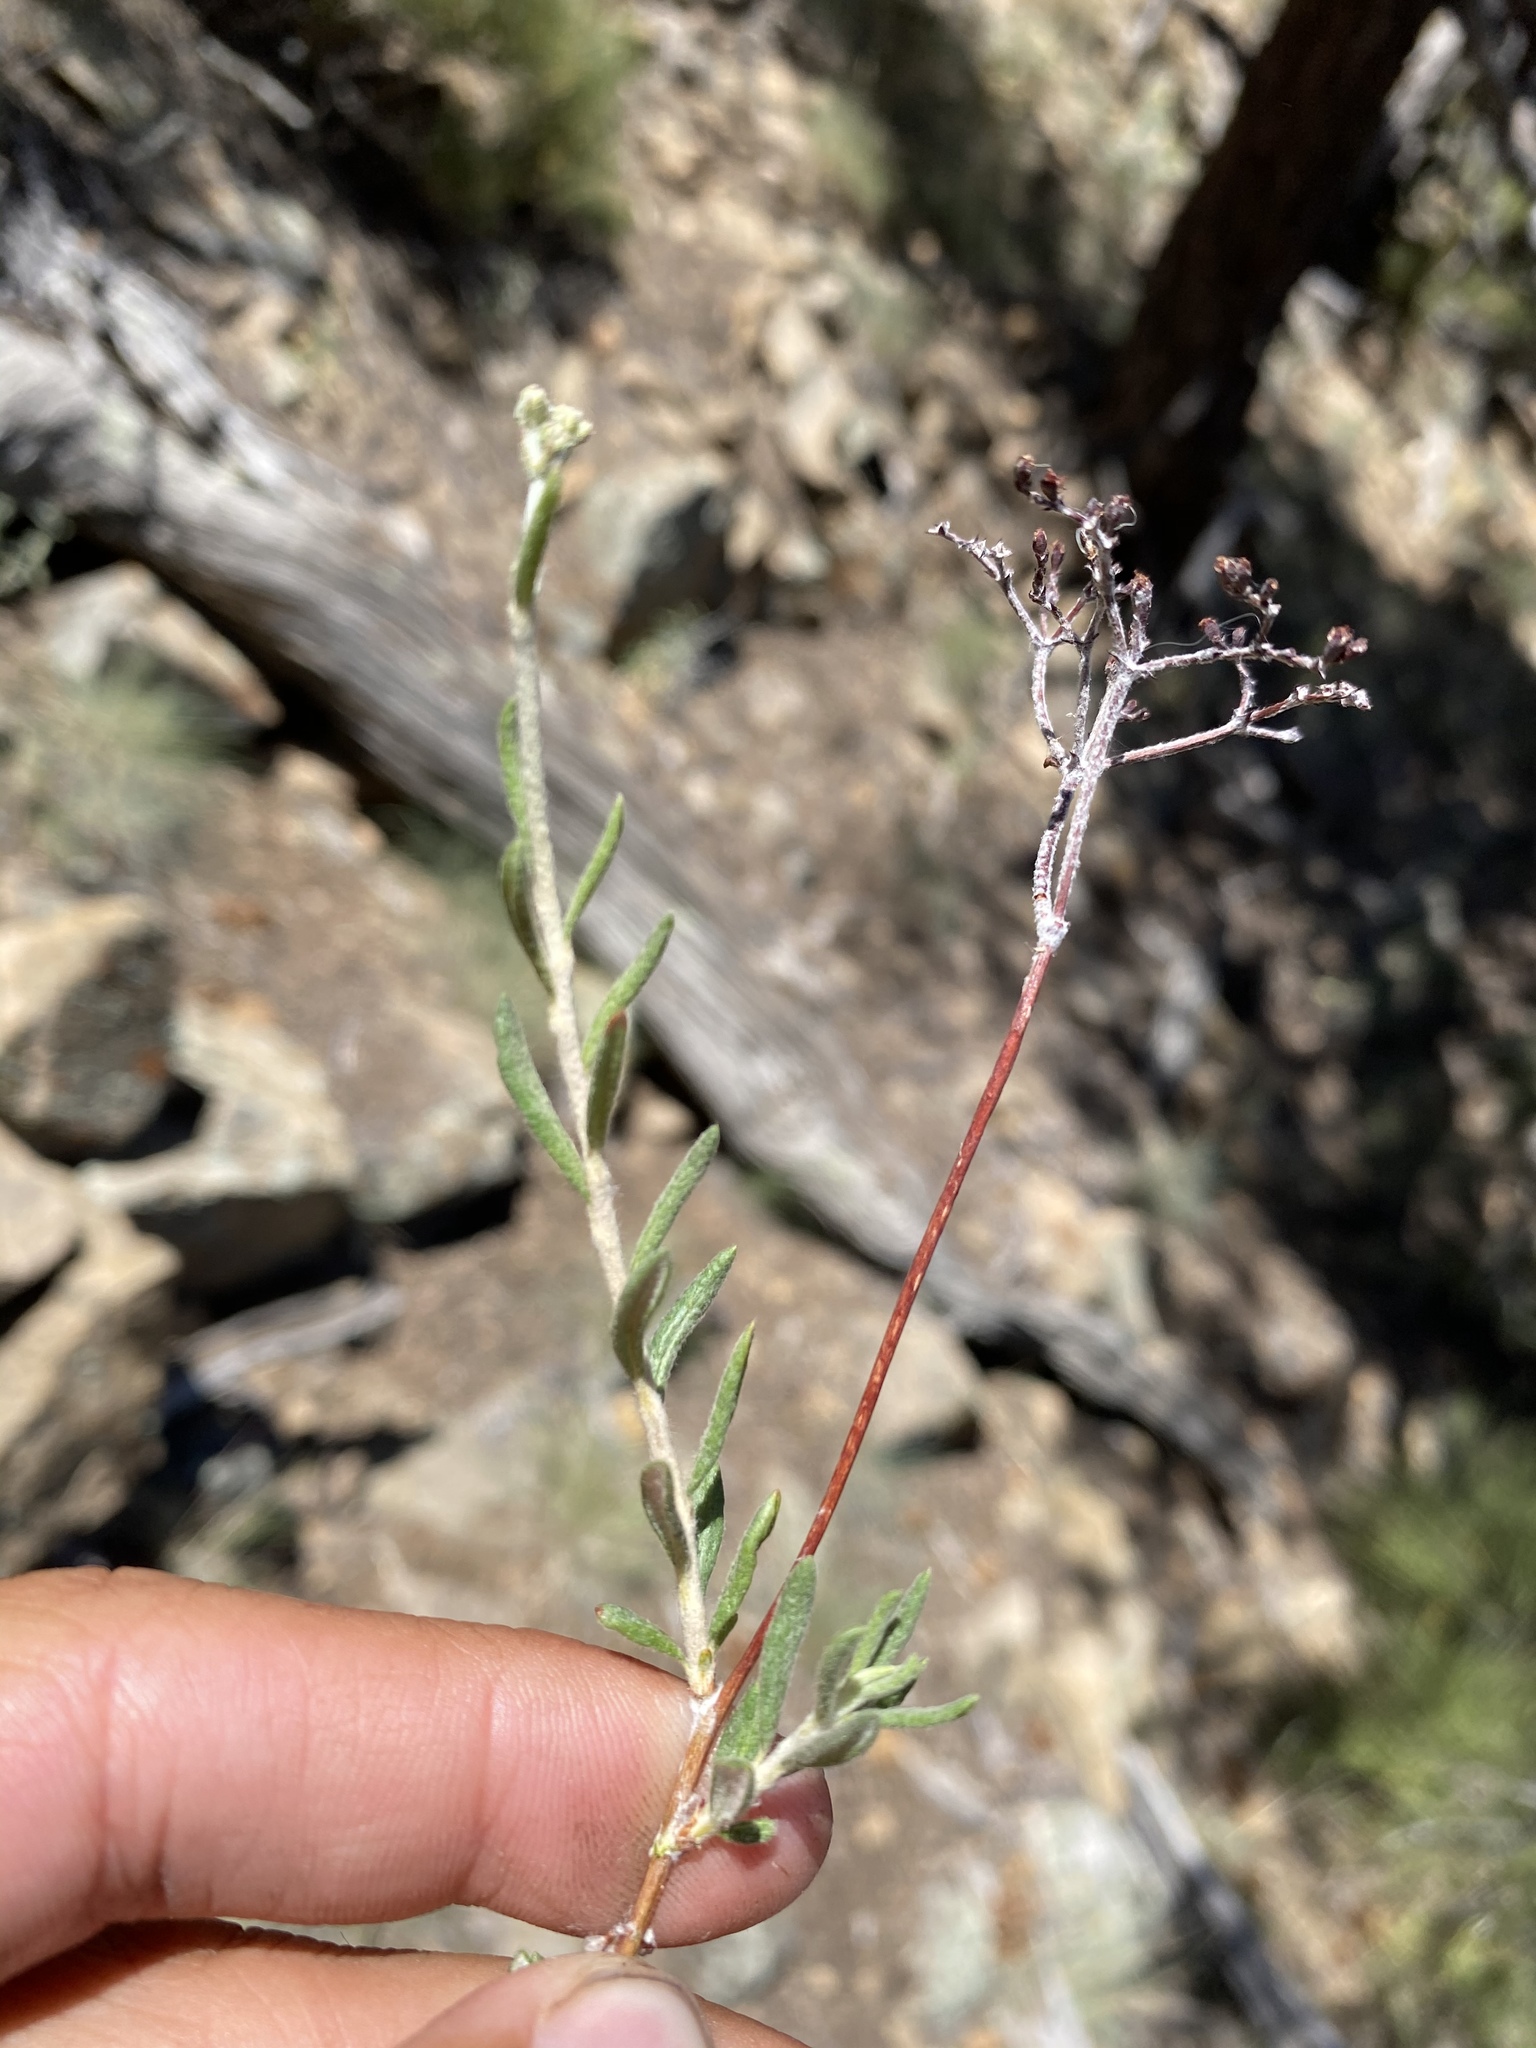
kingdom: Plantae
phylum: Tracheophyta
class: Magnoliopsida
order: Caryophyllales
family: Polygonaceae
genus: Eriogonum
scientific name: Eriogonum microtheca
